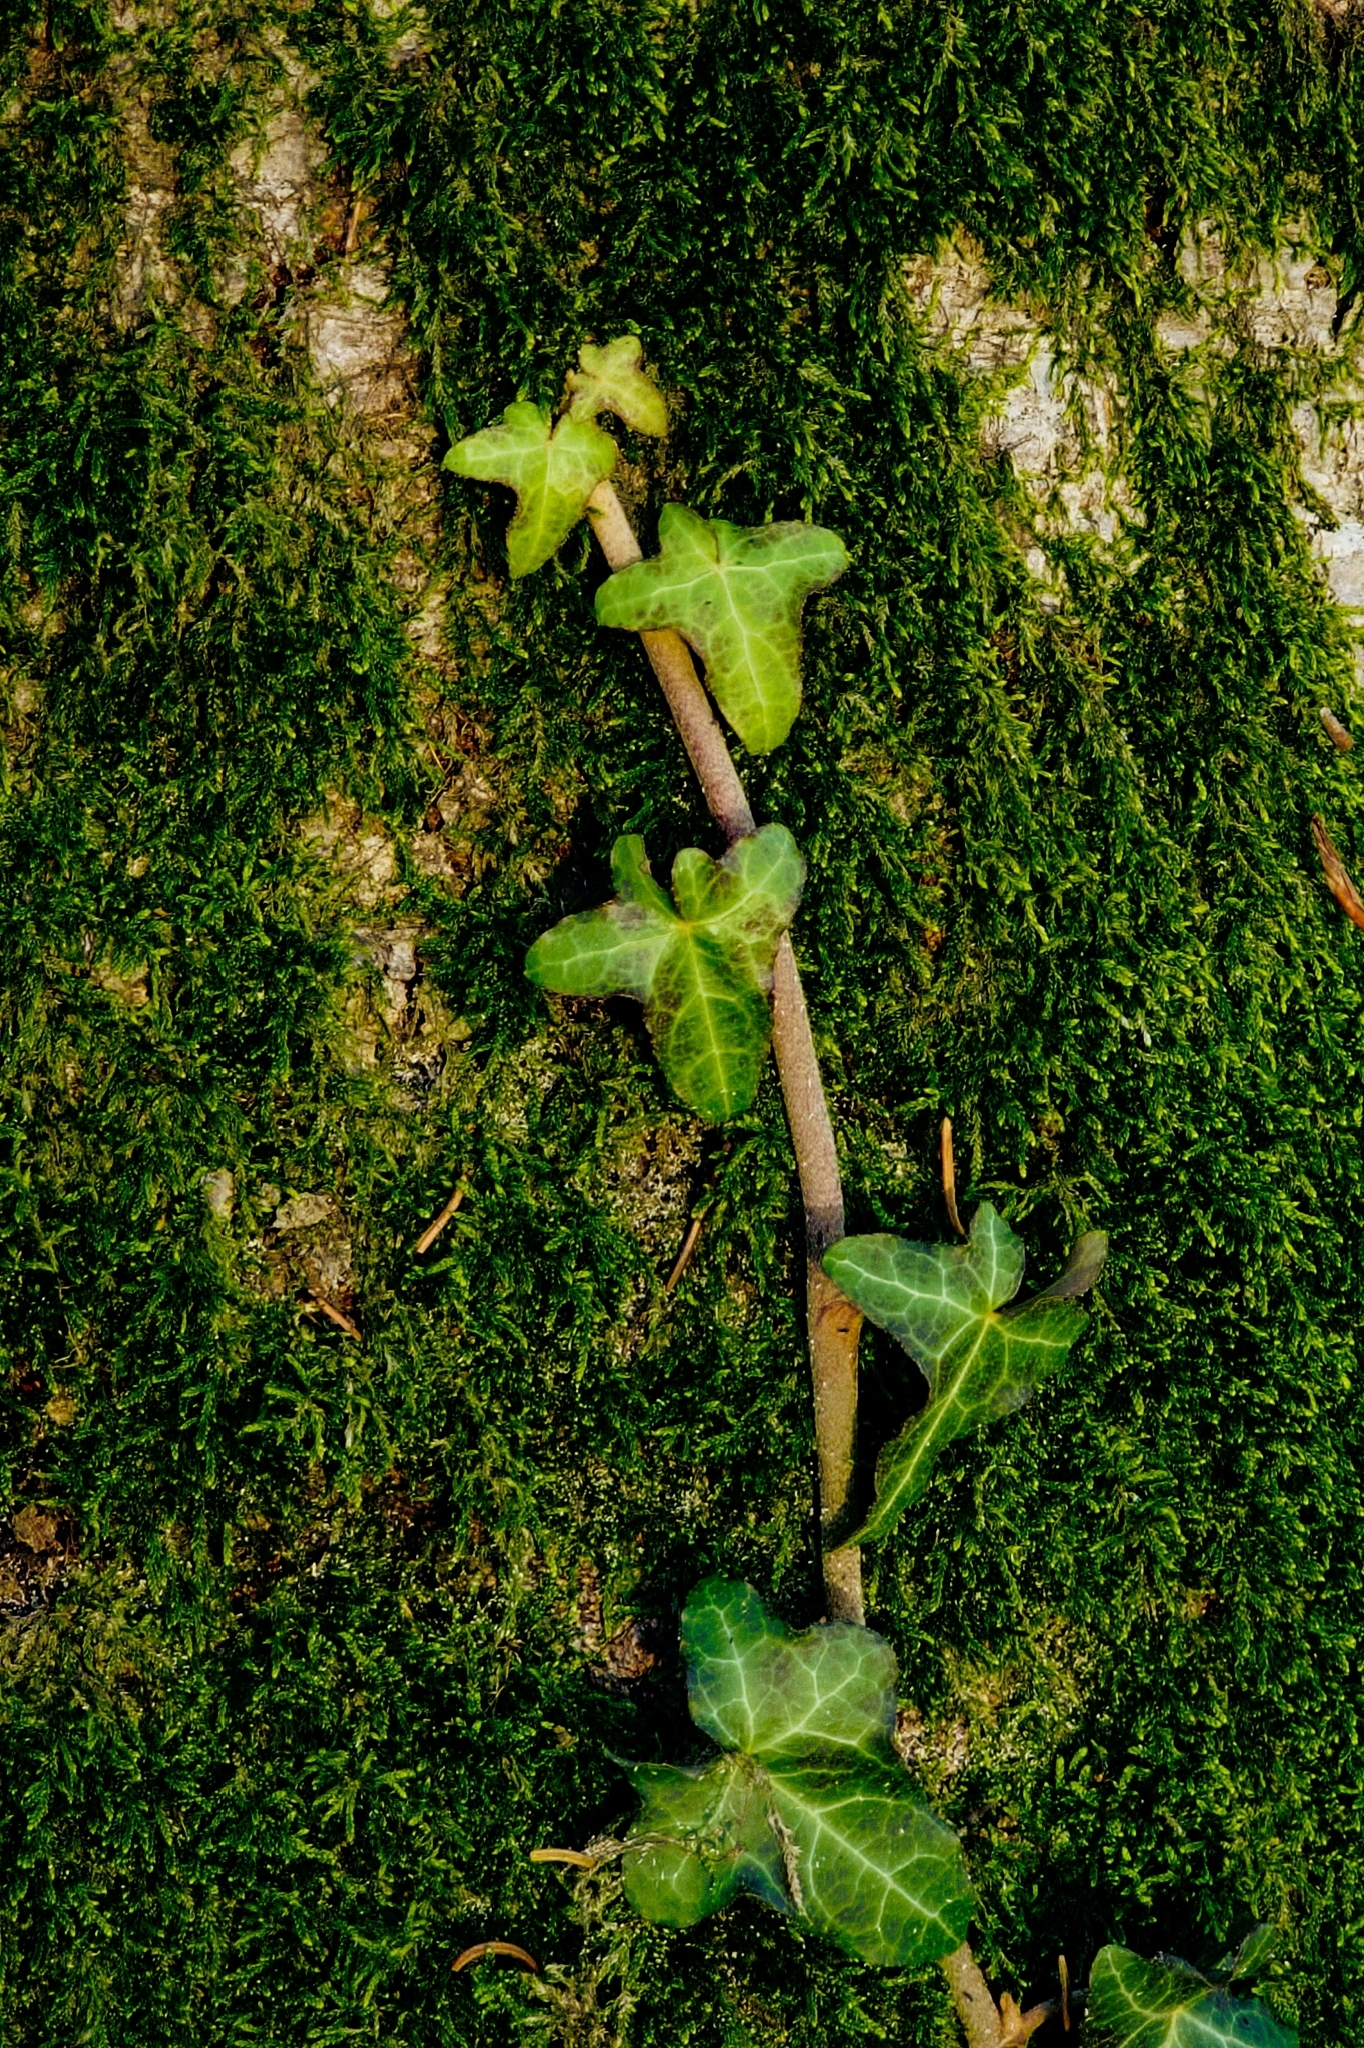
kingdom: Plantae
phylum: Tracheophyta
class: Magnoliopsida
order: Apiales
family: Araliaceae
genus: Hedera
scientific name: Hedera helix
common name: Ivy
